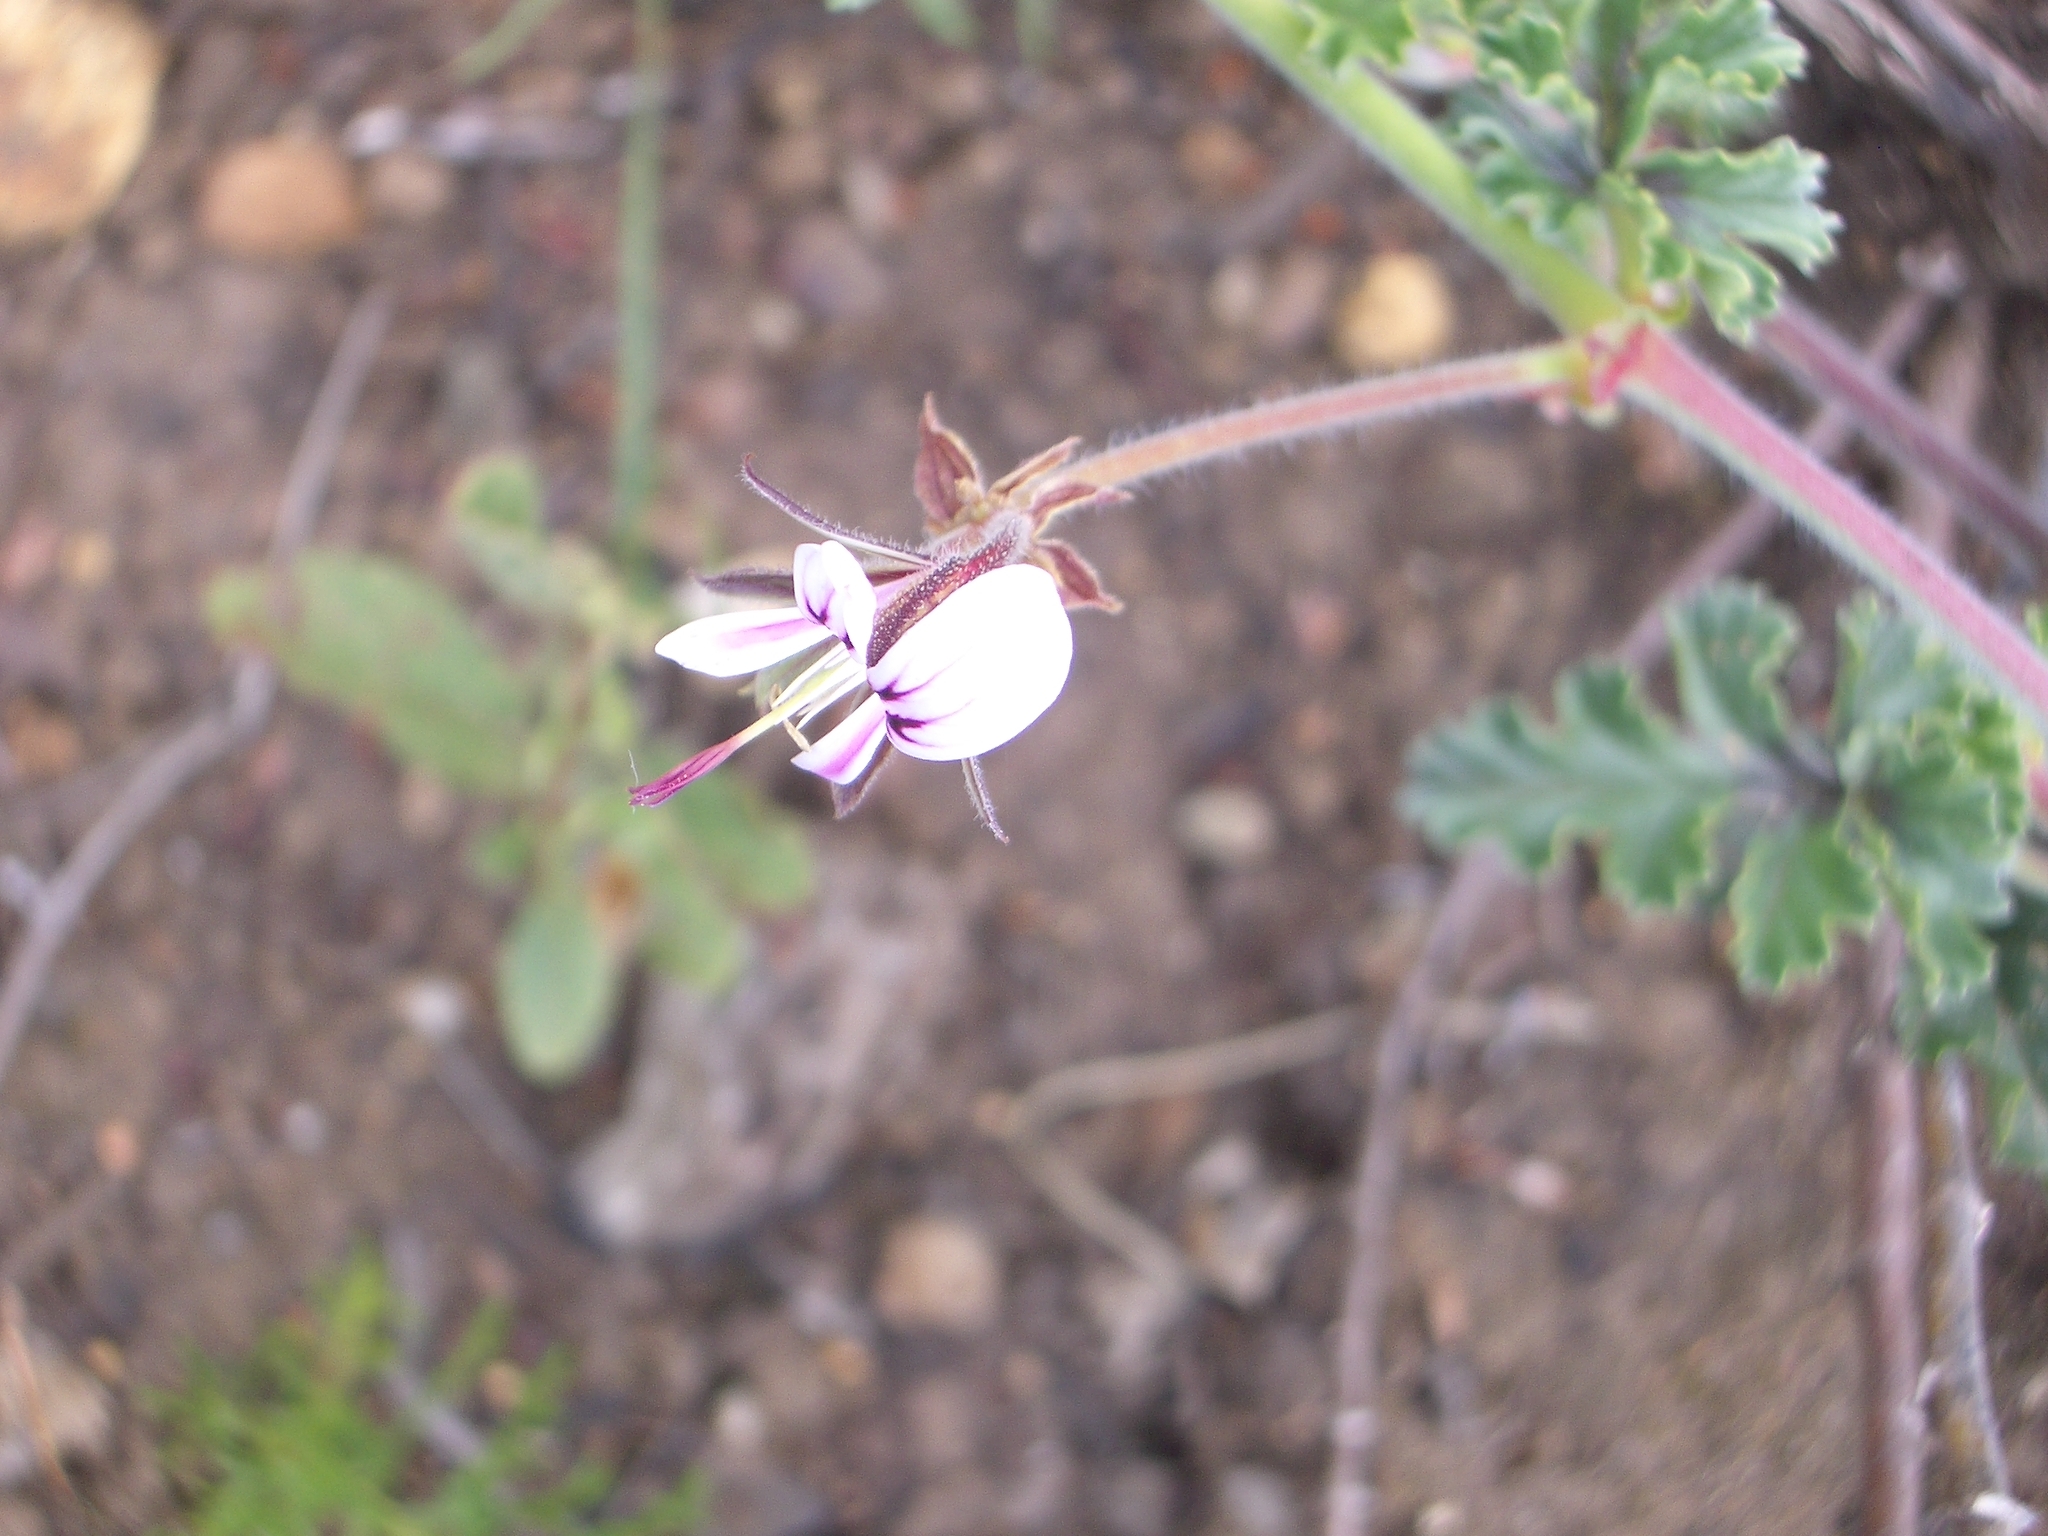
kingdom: Plantae
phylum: Tracheophyta
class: Magnoliopsida
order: Geraniales
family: Geraniaceae
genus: Pelargonium
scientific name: Pelargonium candicans
